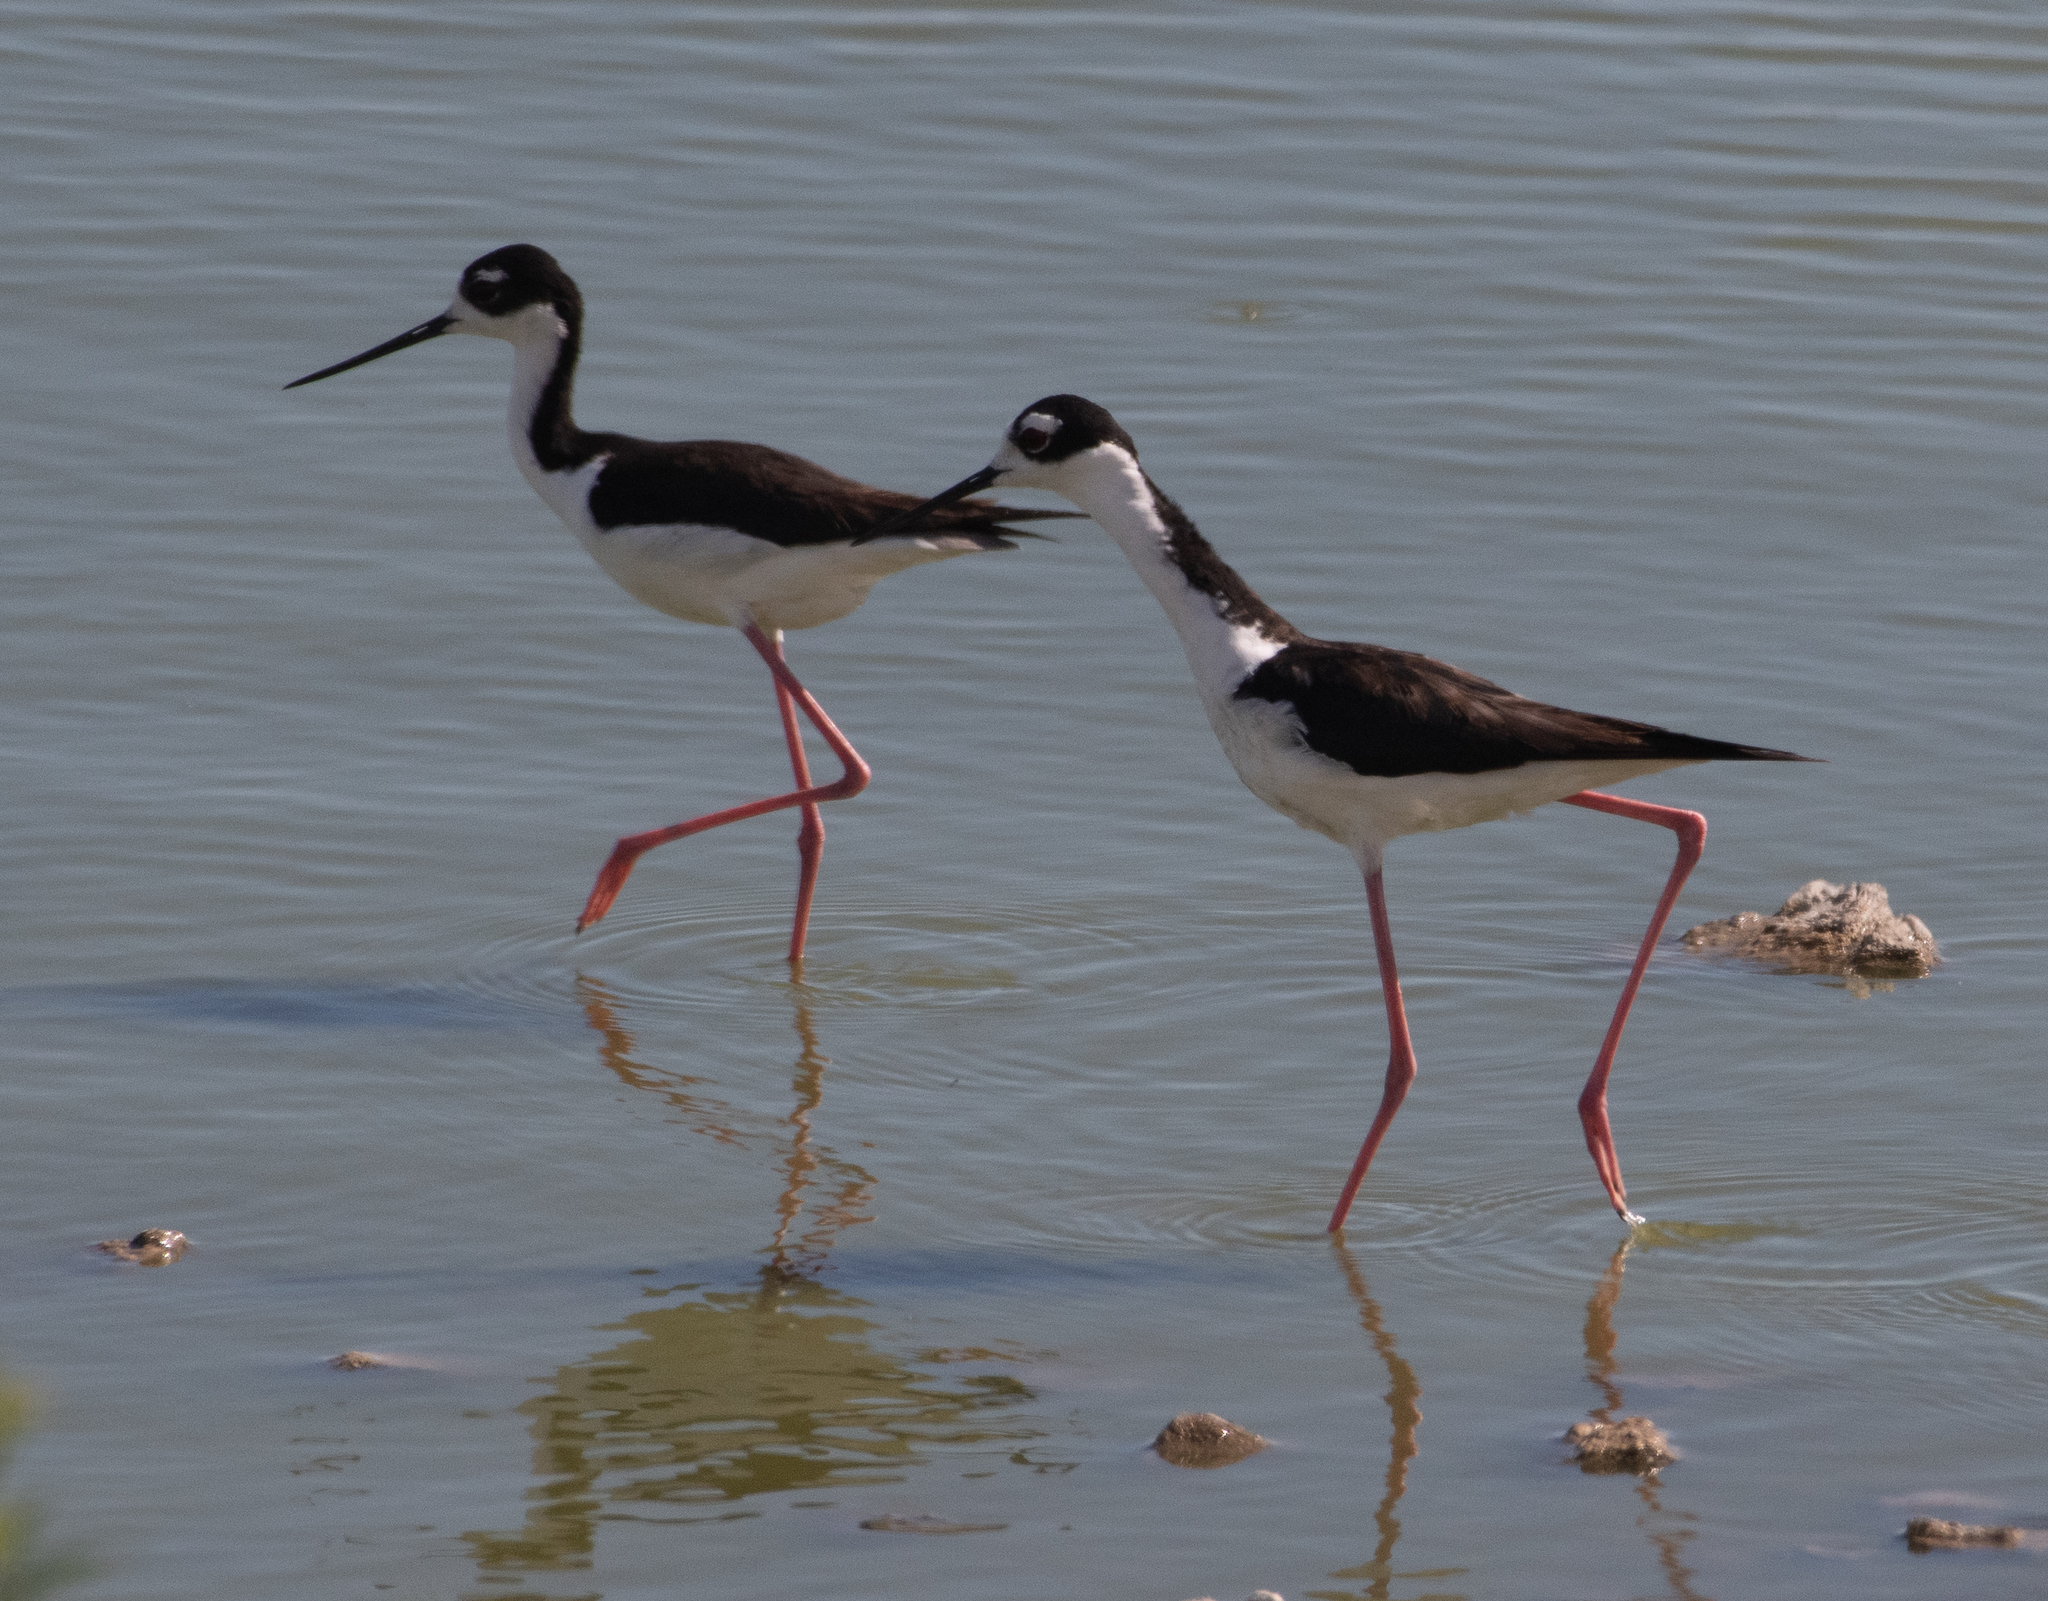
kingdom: Animalia
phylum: Chordata
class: Aves
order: Charadriiformes
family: Recurvirostridae
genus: Himantopus
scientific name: Himantopus mexicanus
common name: Black-necked stilt
